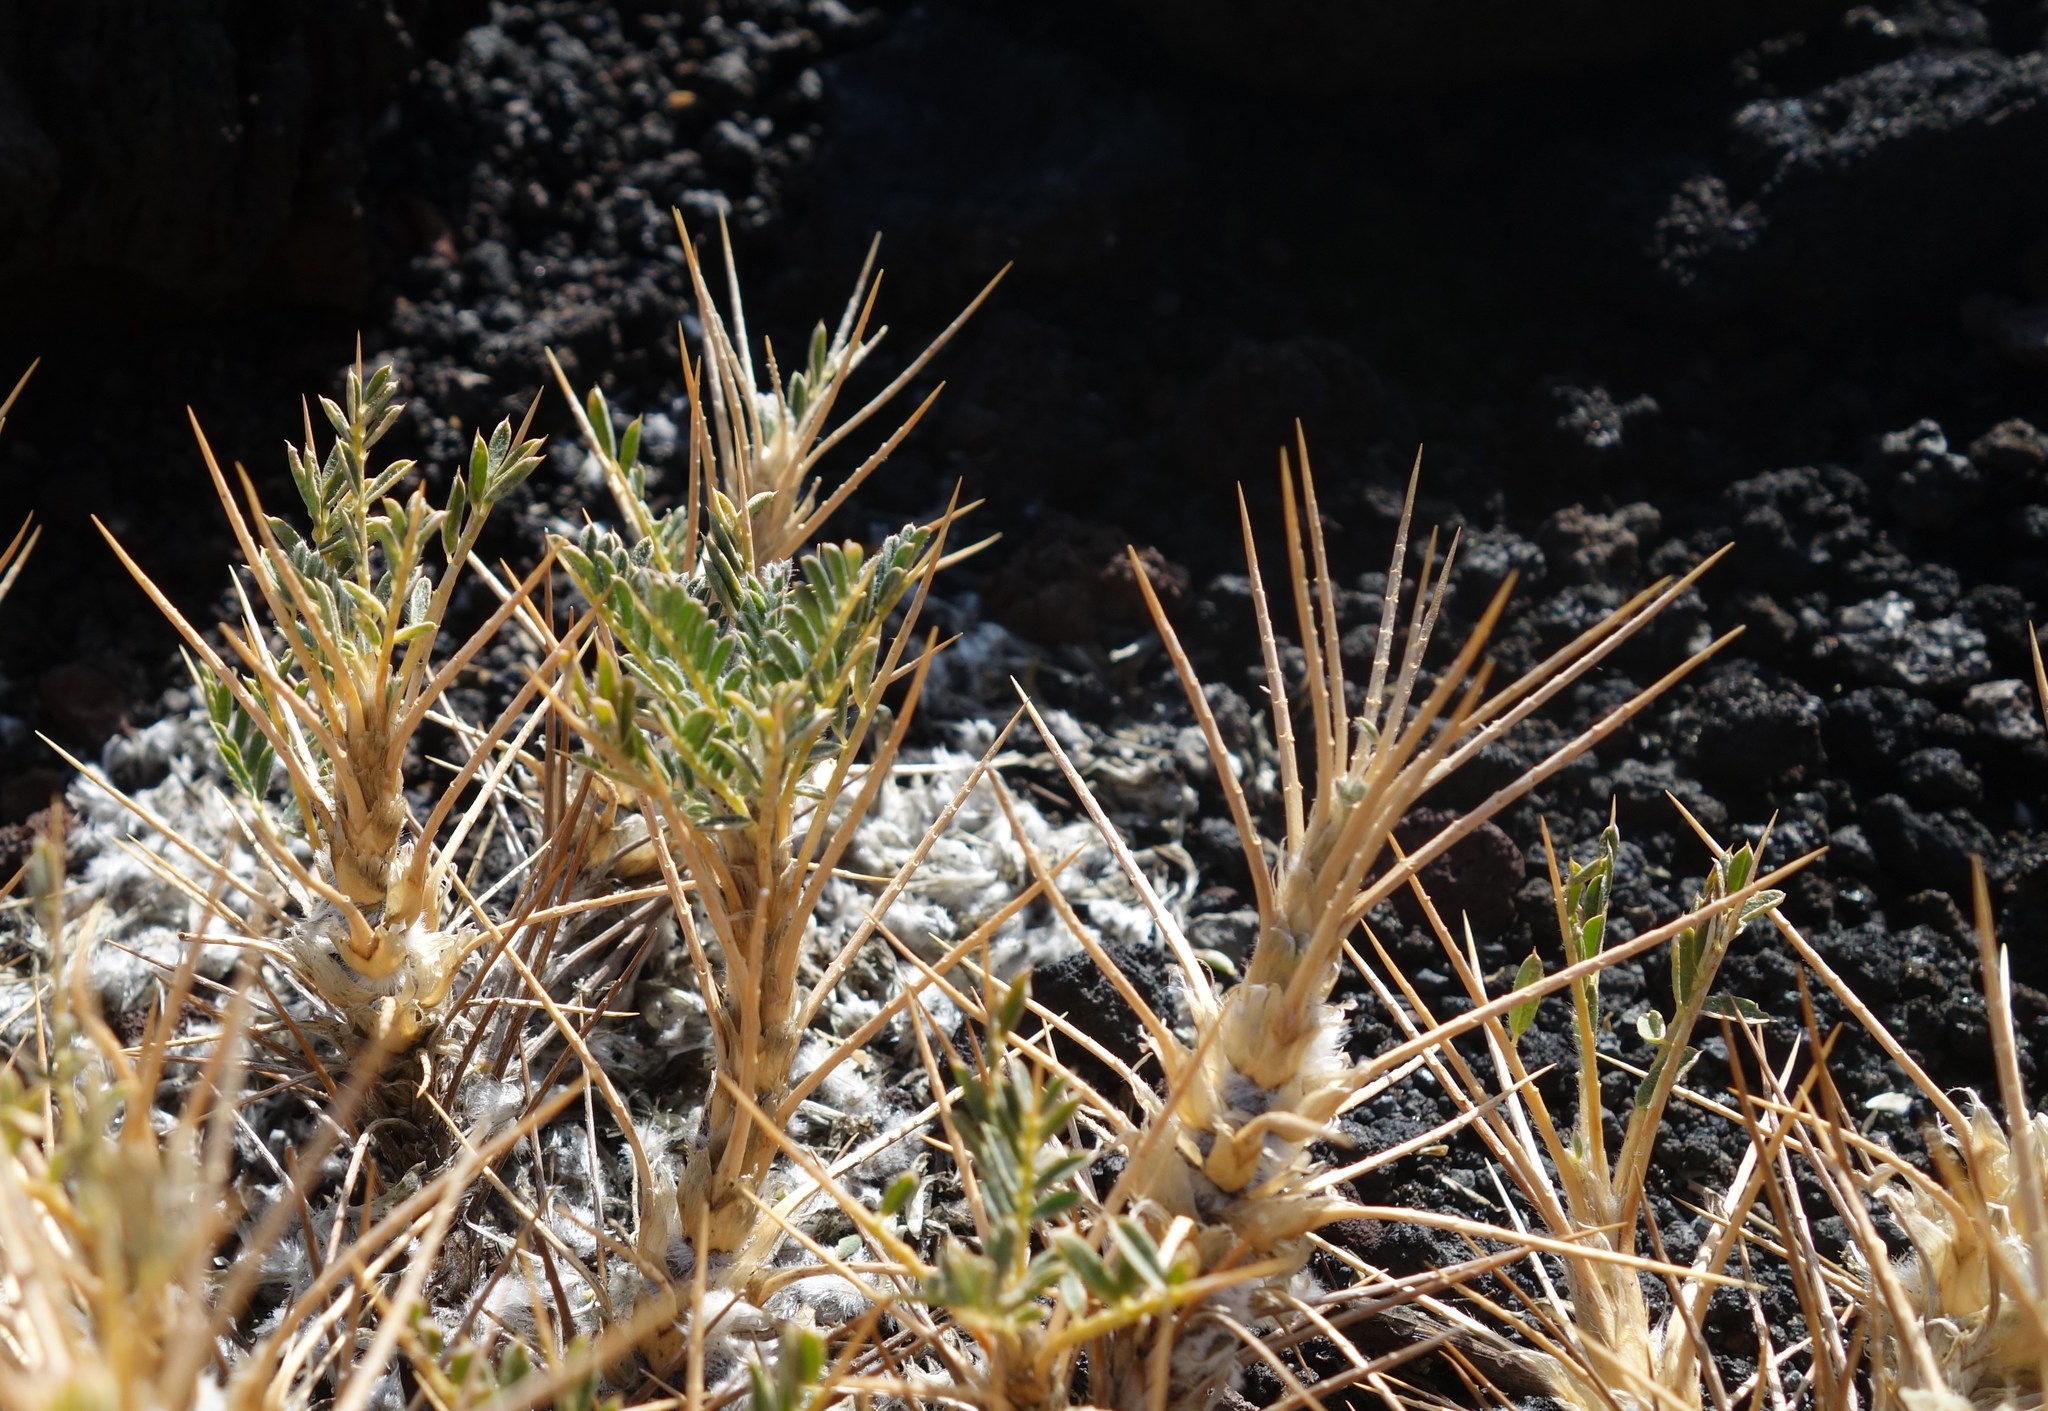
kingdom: Plantae
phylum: Tracheophyta
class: Magnoliopsida
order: Fabales
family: Fabaceae
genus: Astragalus
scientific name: Astragalus siculus
